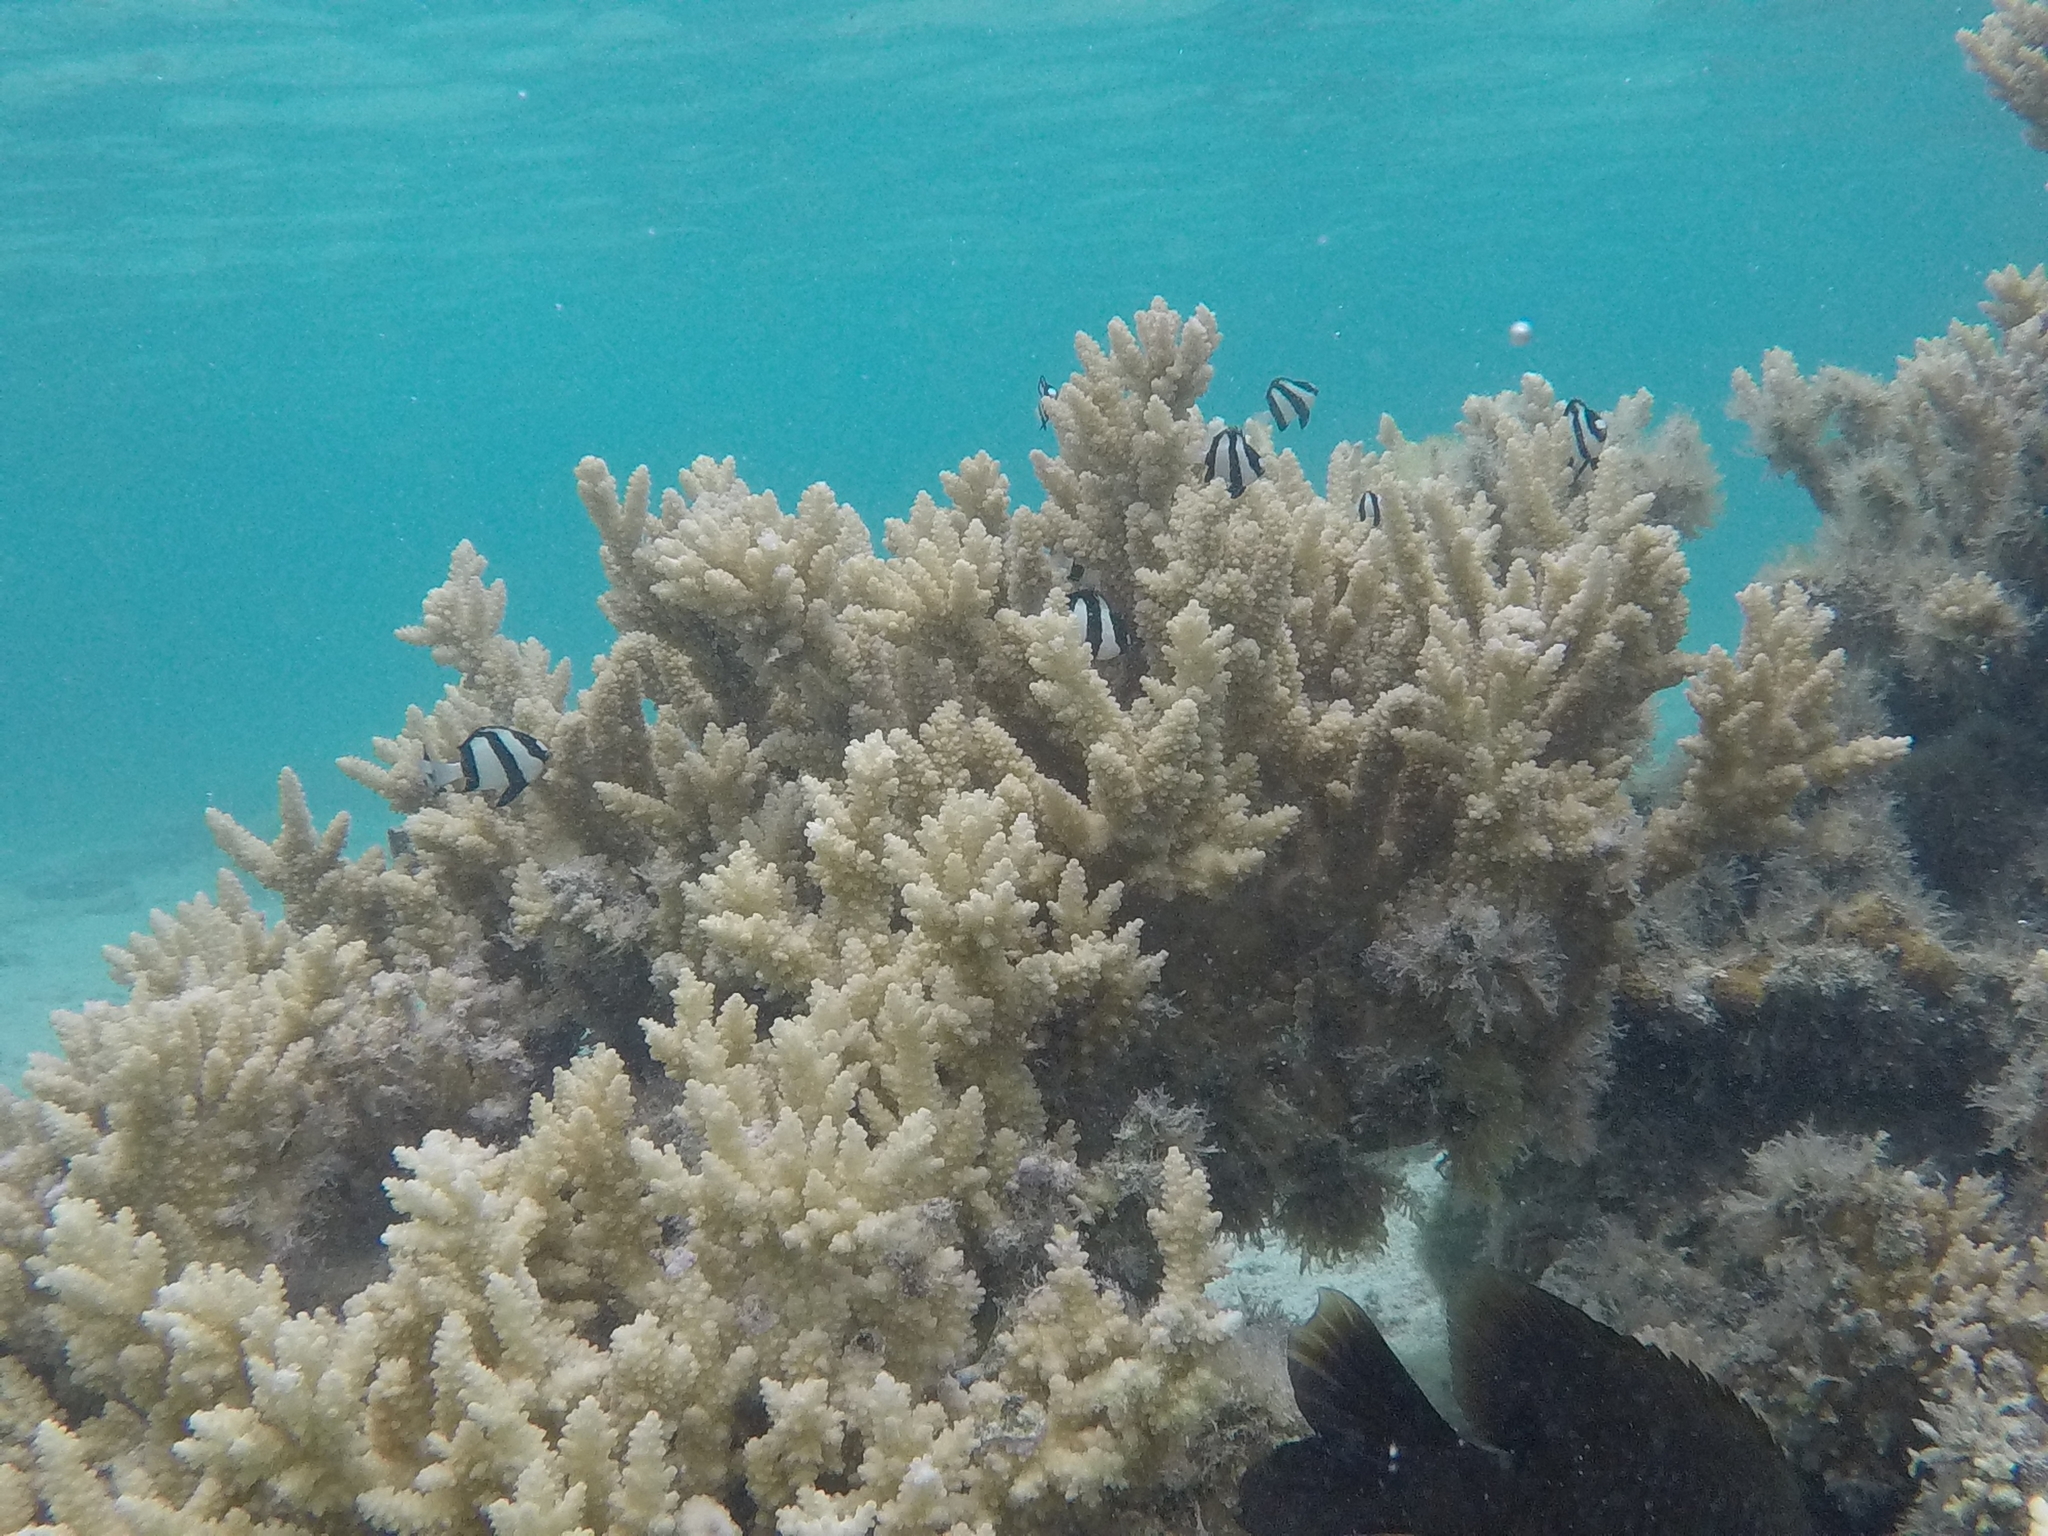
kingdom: Animalia
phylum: Chordata
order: Perciformes
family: Pomacentridae
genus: Dascyllus
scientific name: Dascyllus aruanus
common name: Humbug dascyllus
